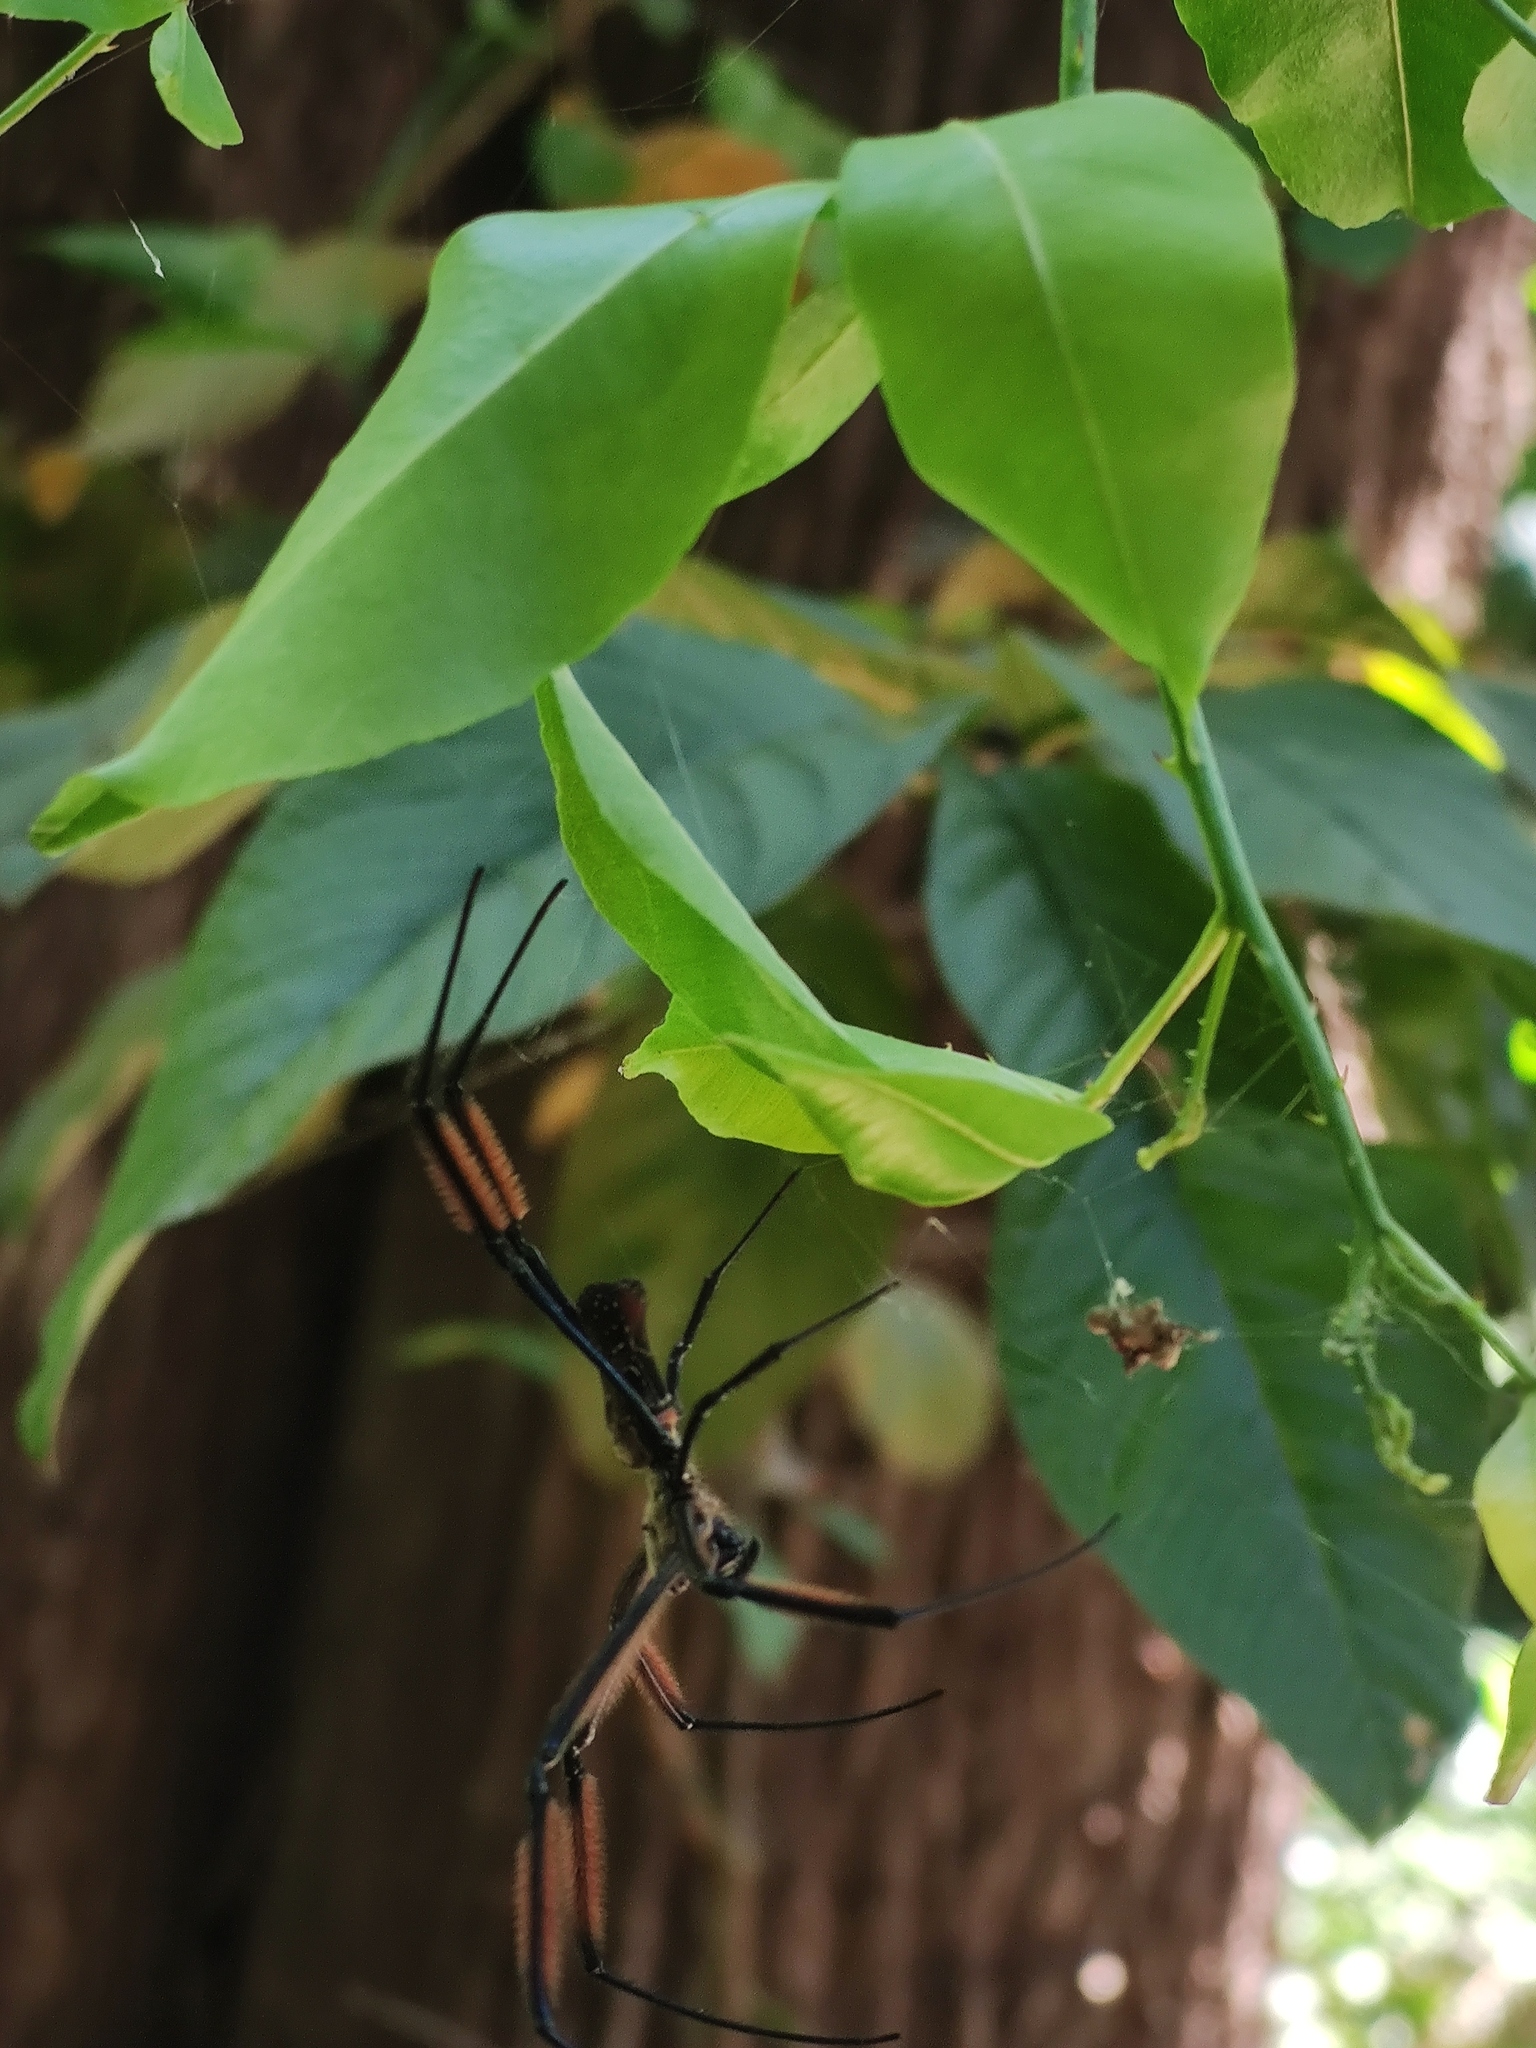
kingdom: Animalia
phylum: Arthropoda
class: Arachnida
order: Araneae
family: Araneidae
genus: Trichonephila
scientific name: Trichonephila fenestrata
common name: Hairy golden orb weaver
